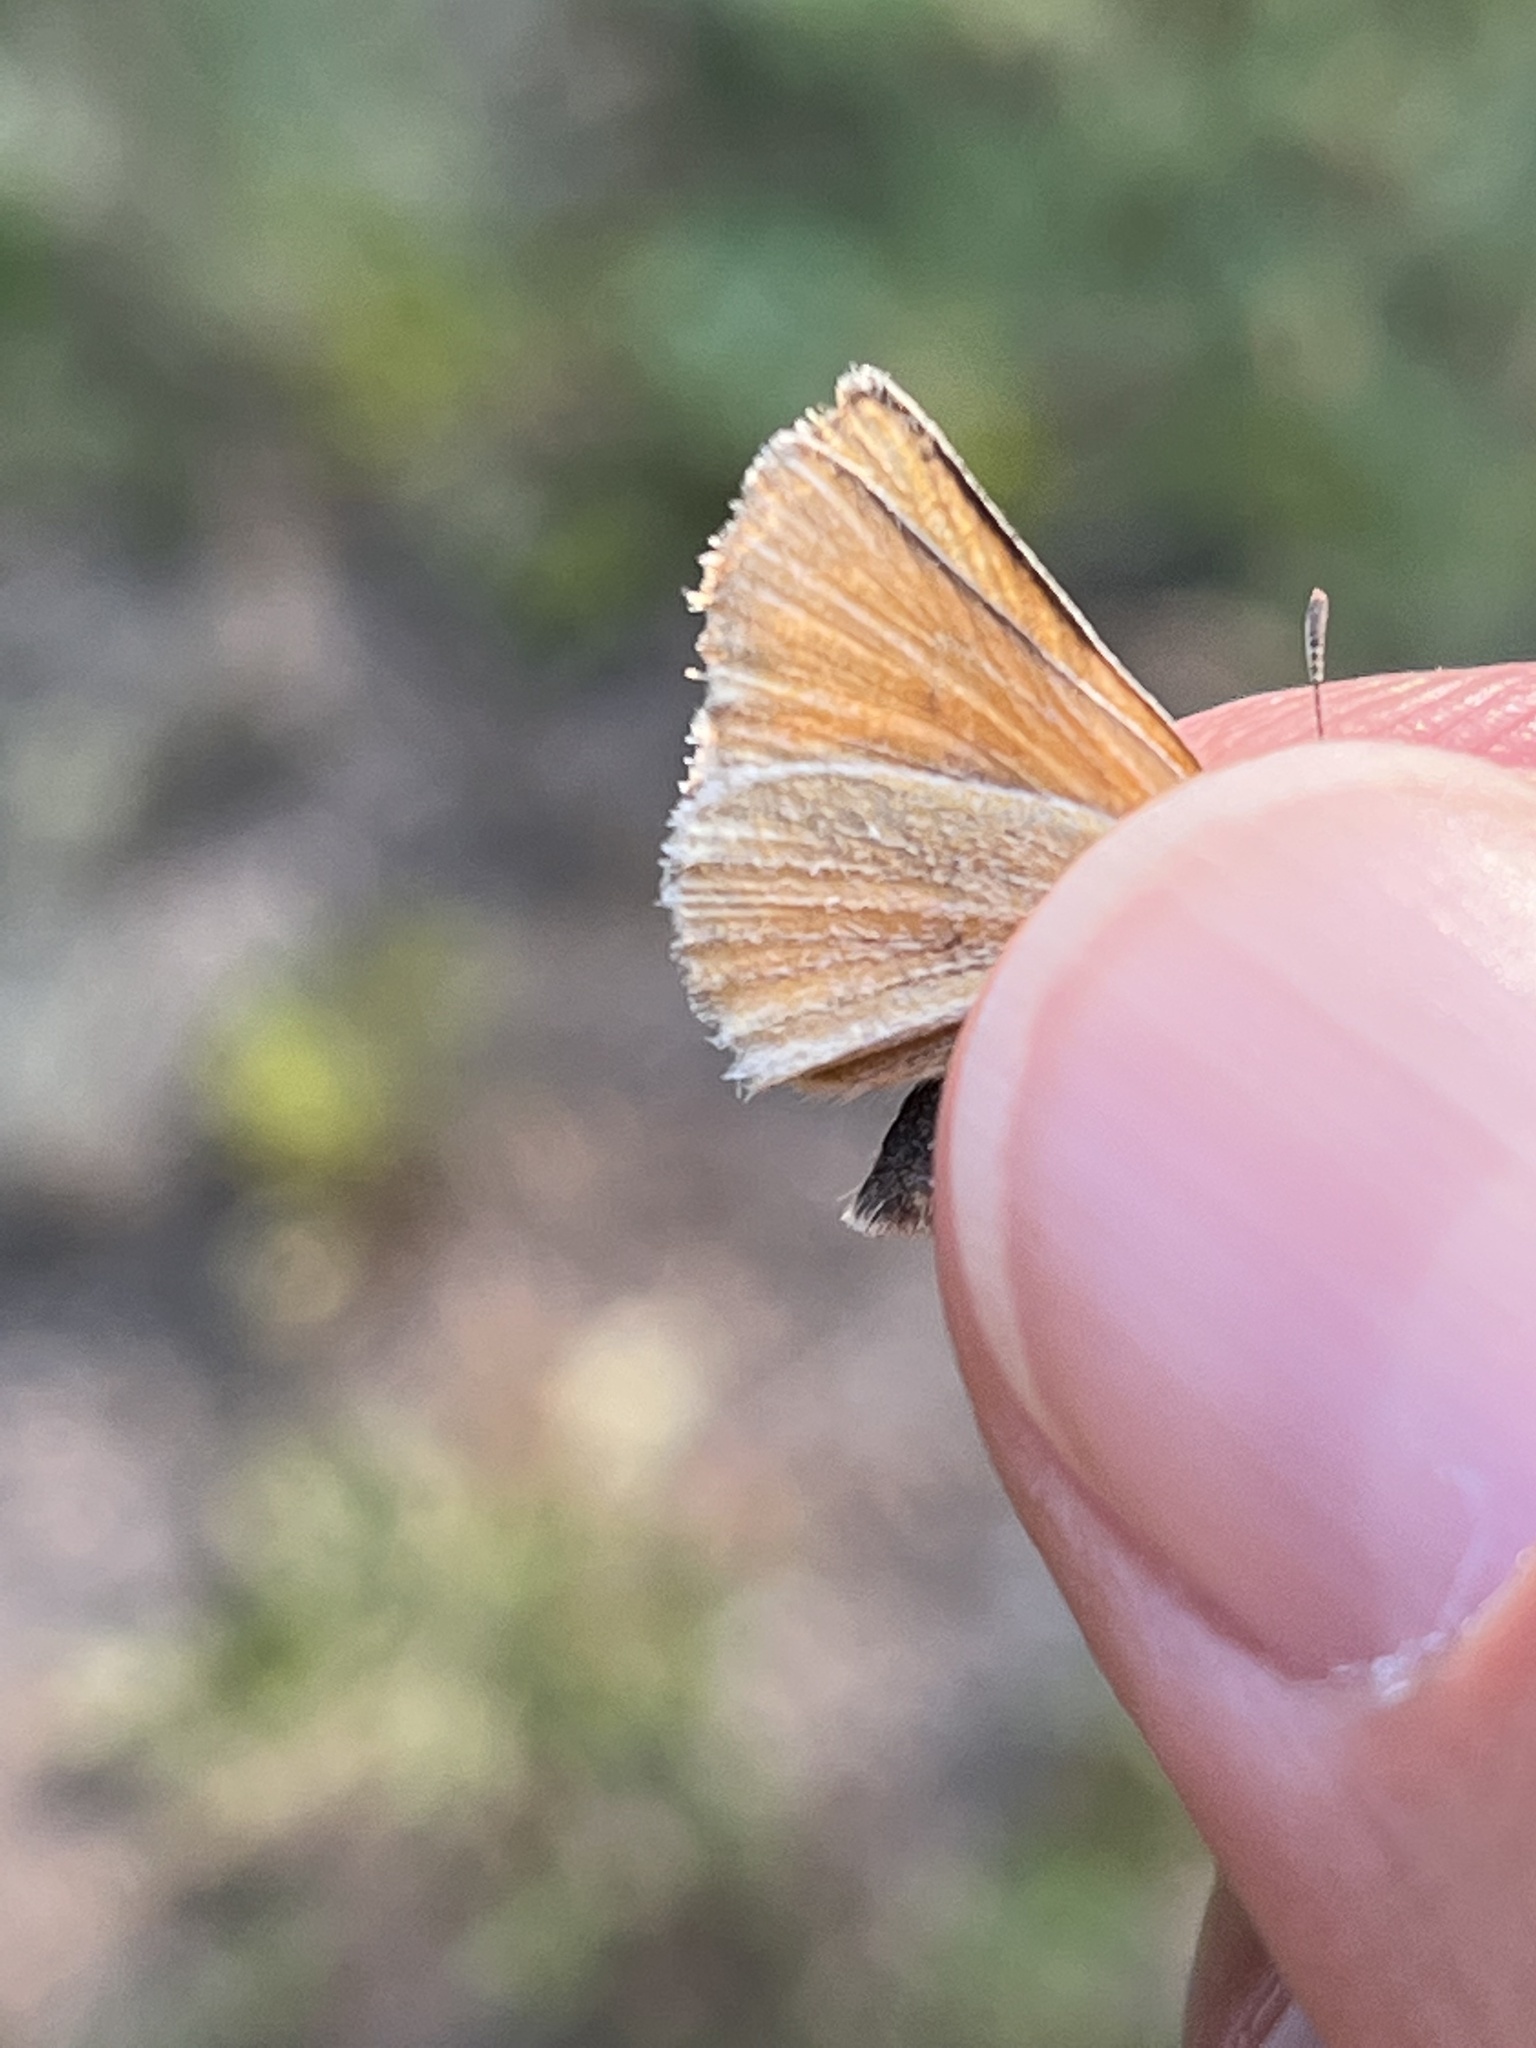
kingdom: Animalia
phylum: Arthropoda
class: Insecta
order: Lepidoptera
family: Hesperiidae
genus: Thymelicus
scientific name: Thymelicus lineola
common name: Essex skipper
